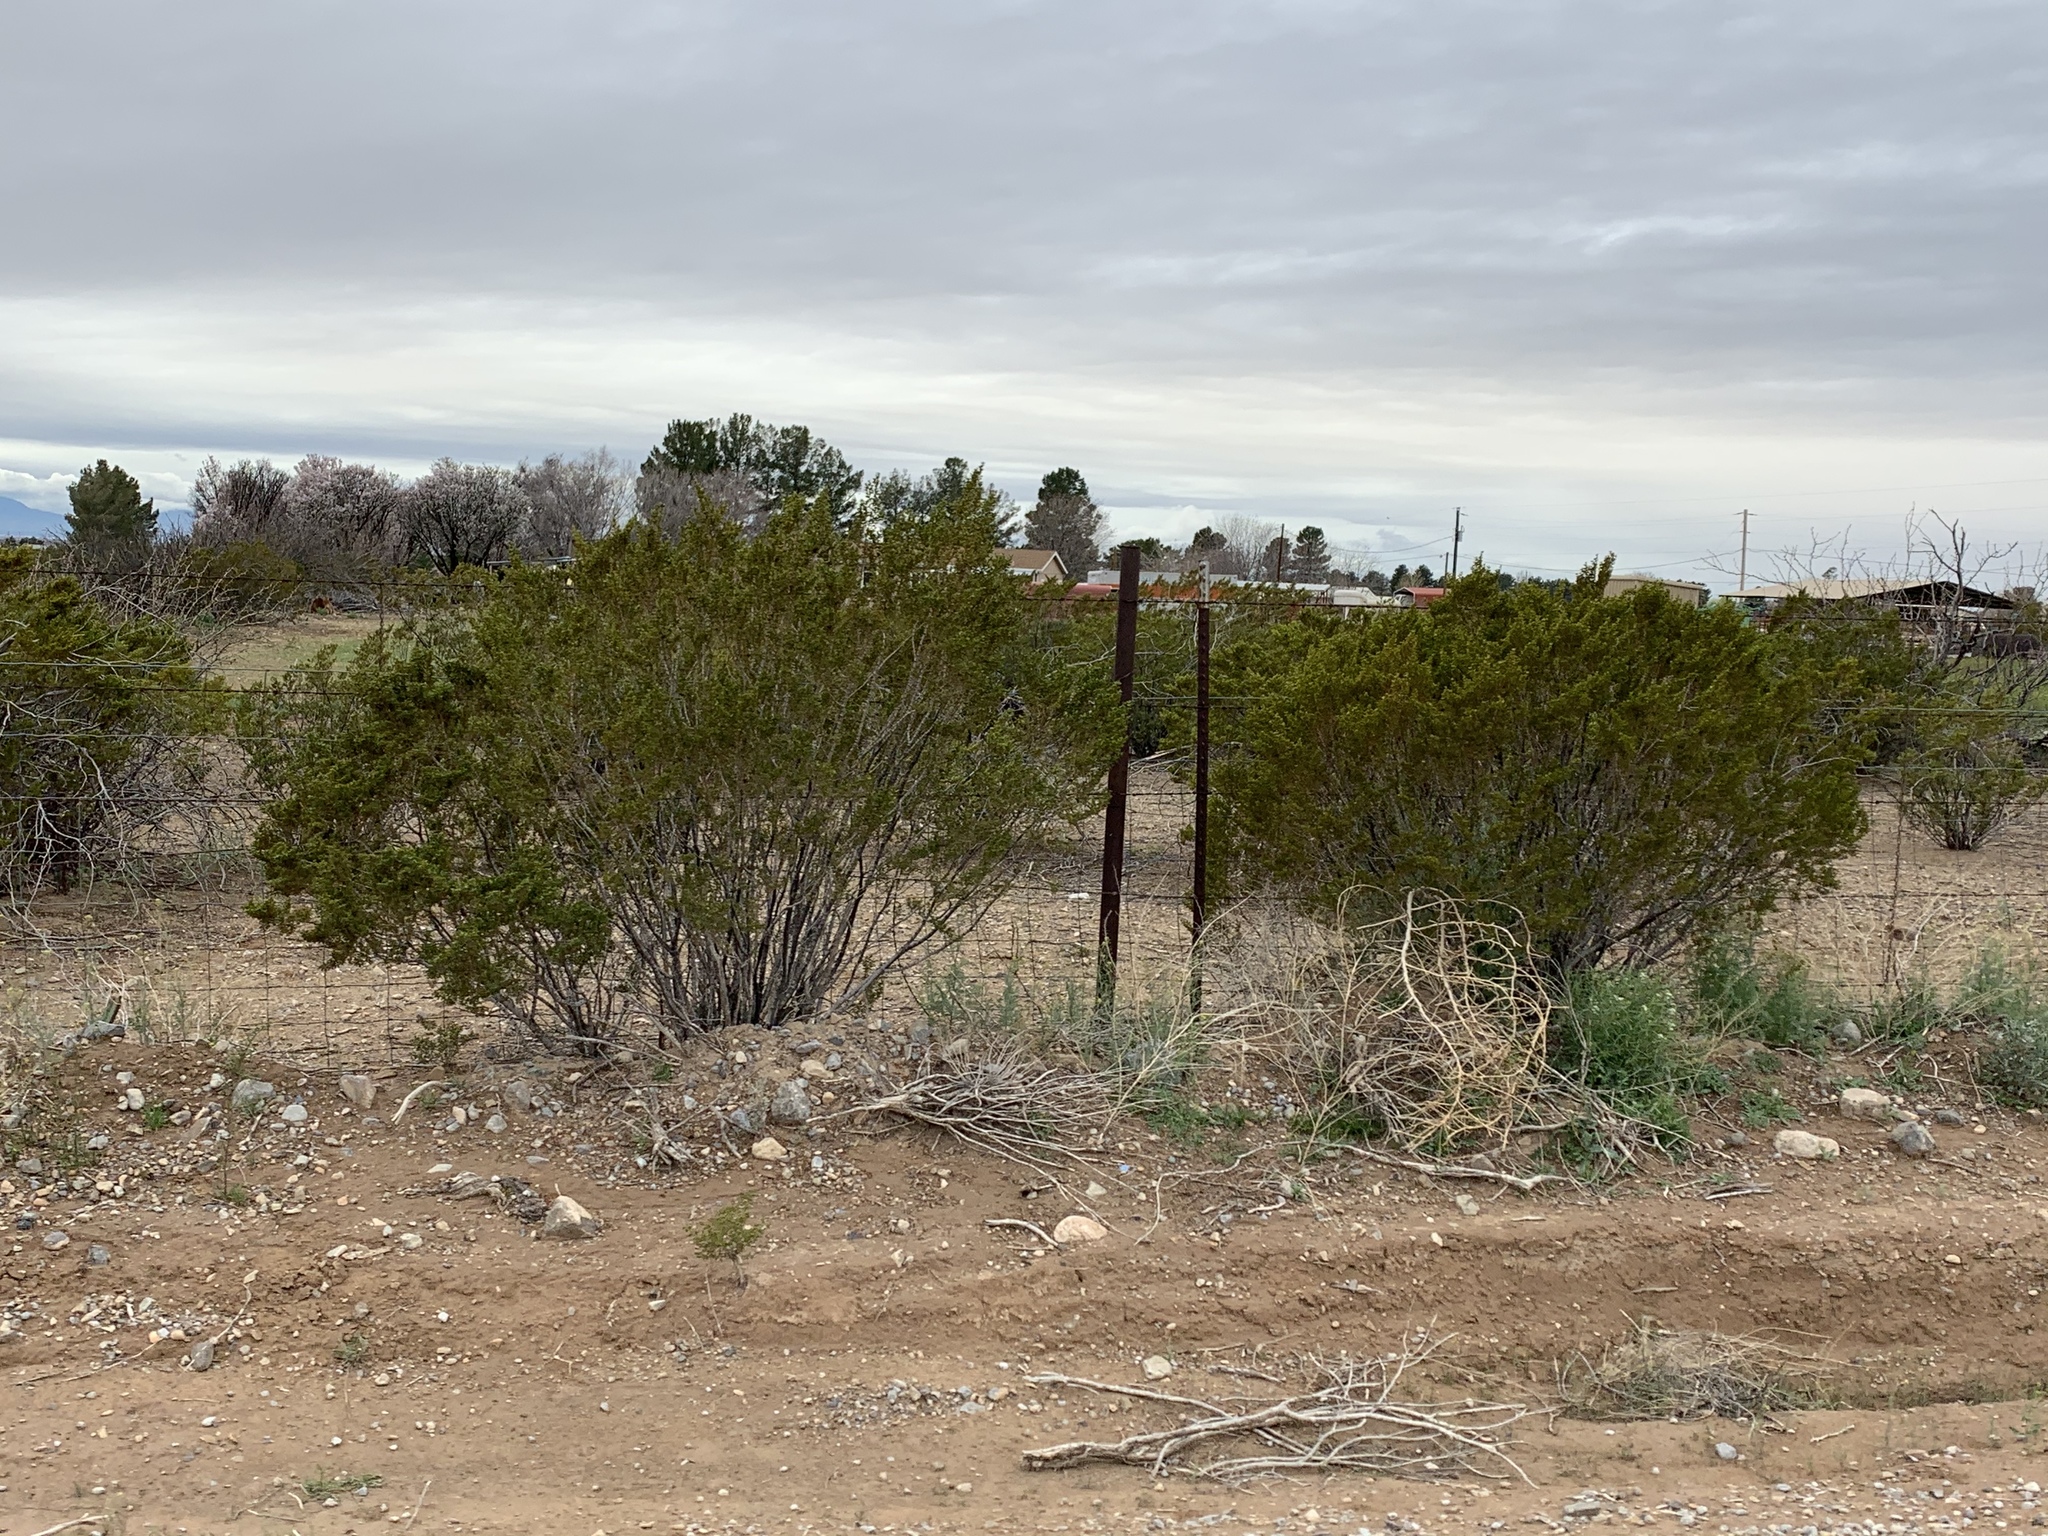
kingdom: Plantae
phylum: Tracheophyta
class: Magnoliopsida
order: Zygophyllales
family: Zygophyllaceae
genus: Larrea
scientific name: Larrea tridentata
